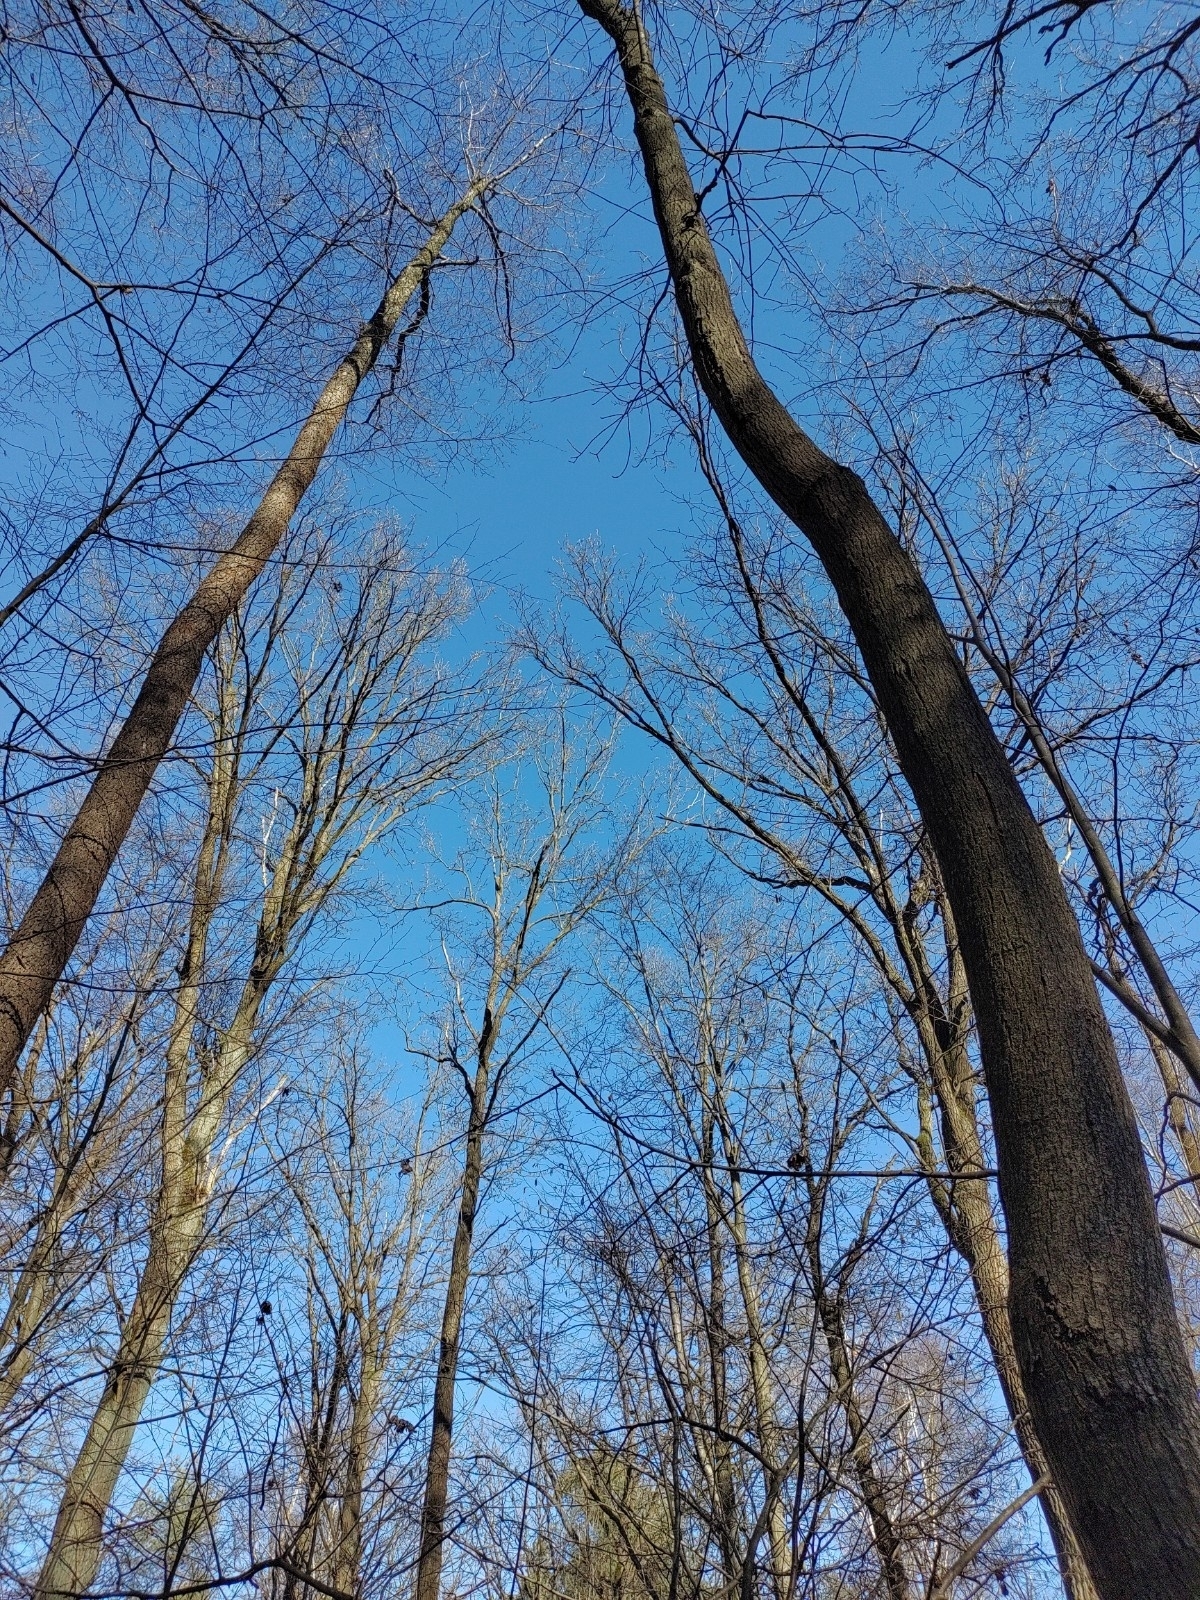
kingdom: Plantae
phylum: Tracheophyta
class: Magnoliopsida
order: Fagales
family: Betulaceae
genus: Alnus
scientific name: Alnus glutinosa
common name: Black alder
